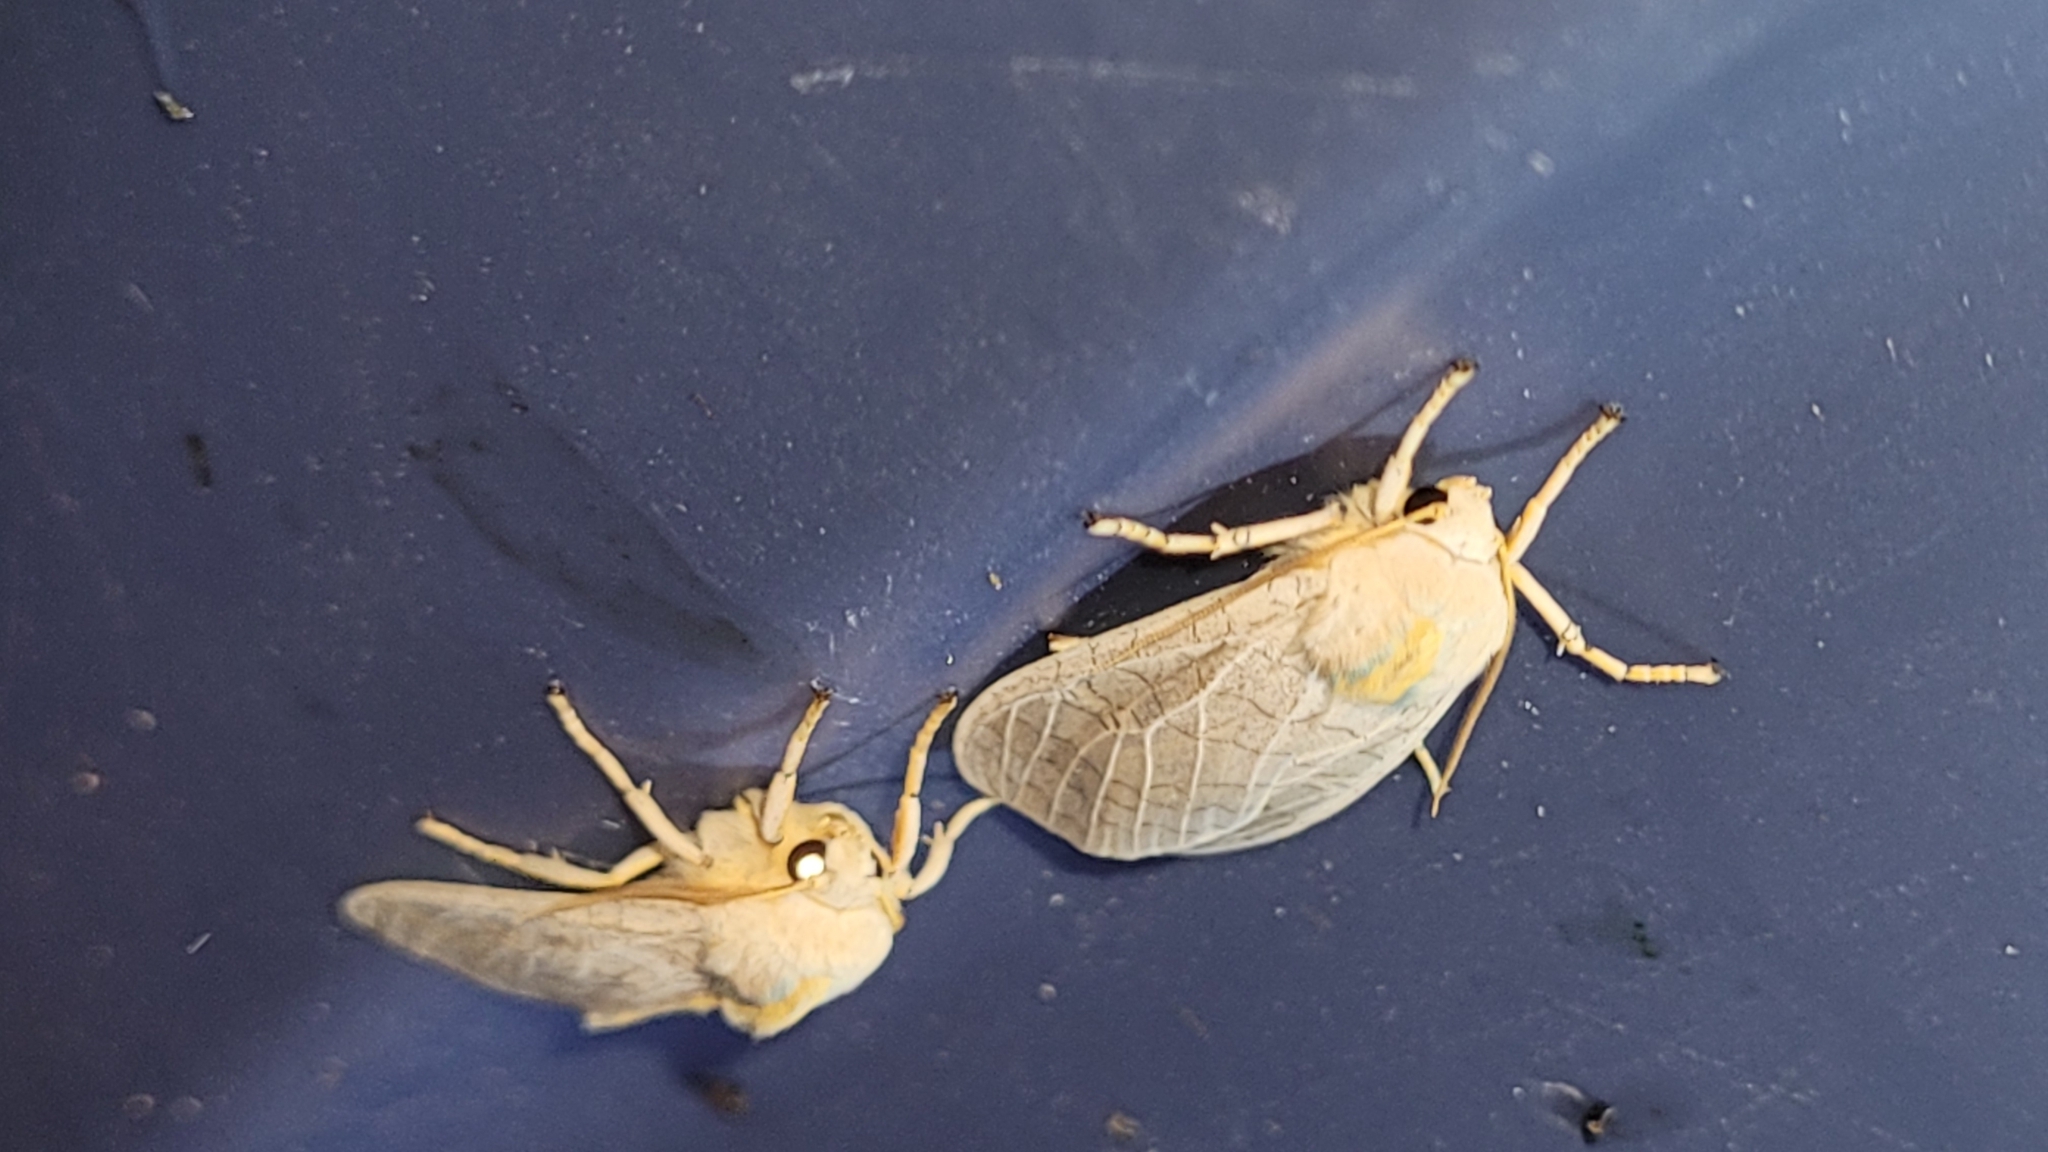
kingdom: Animalia
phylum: Arthropoda
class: Insecta
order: Lepidoptera
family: Erebidae
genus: Halysidota
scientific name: Halysidota tessellaris
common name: Banded tussock moth
